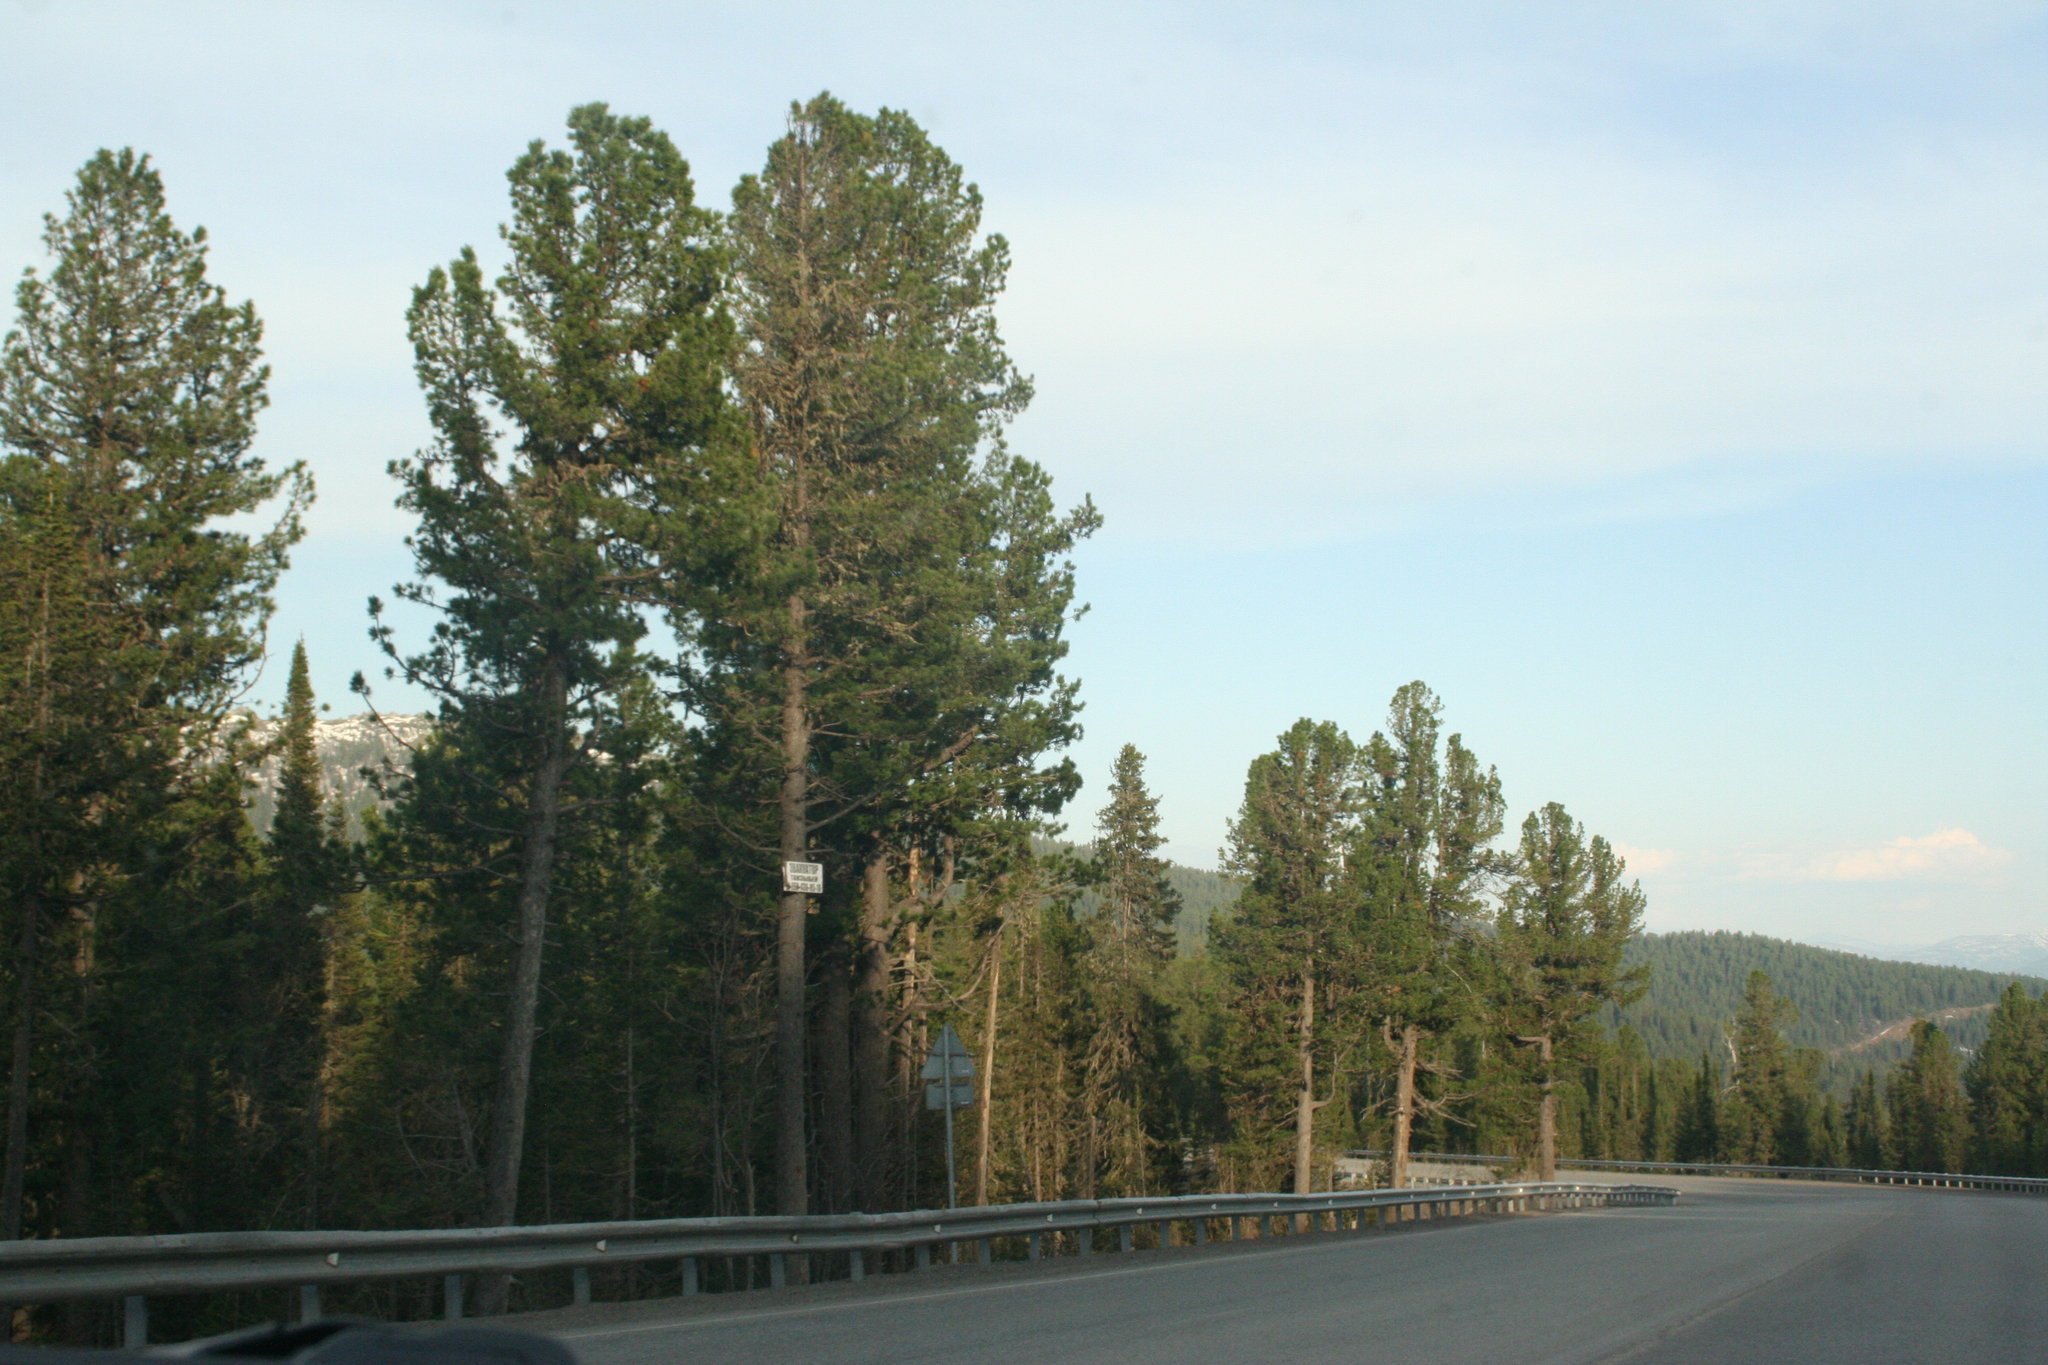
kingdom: Plantae
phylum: Tracheophyta
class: Pinopsida
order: Pinales
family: Pinaceae
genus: Pinus
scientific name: Pinus sibirica
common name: Siberian pine
